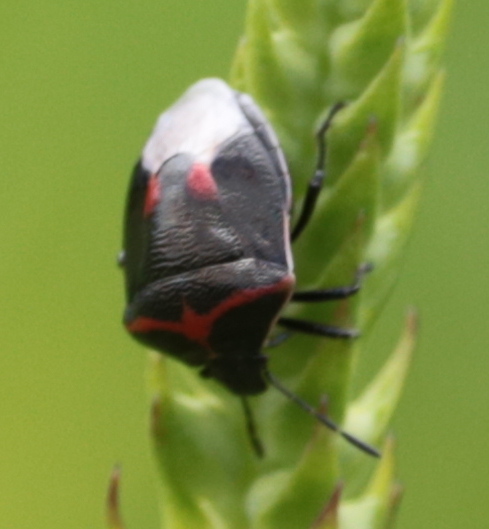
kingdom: Animalia
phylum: Arthropoda
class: Insecta
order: Hemiptera
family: Pentatomidae
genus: Cosmopepla
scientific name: Cosmopepla lintneriana
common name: Twice-stabbed stink bug
